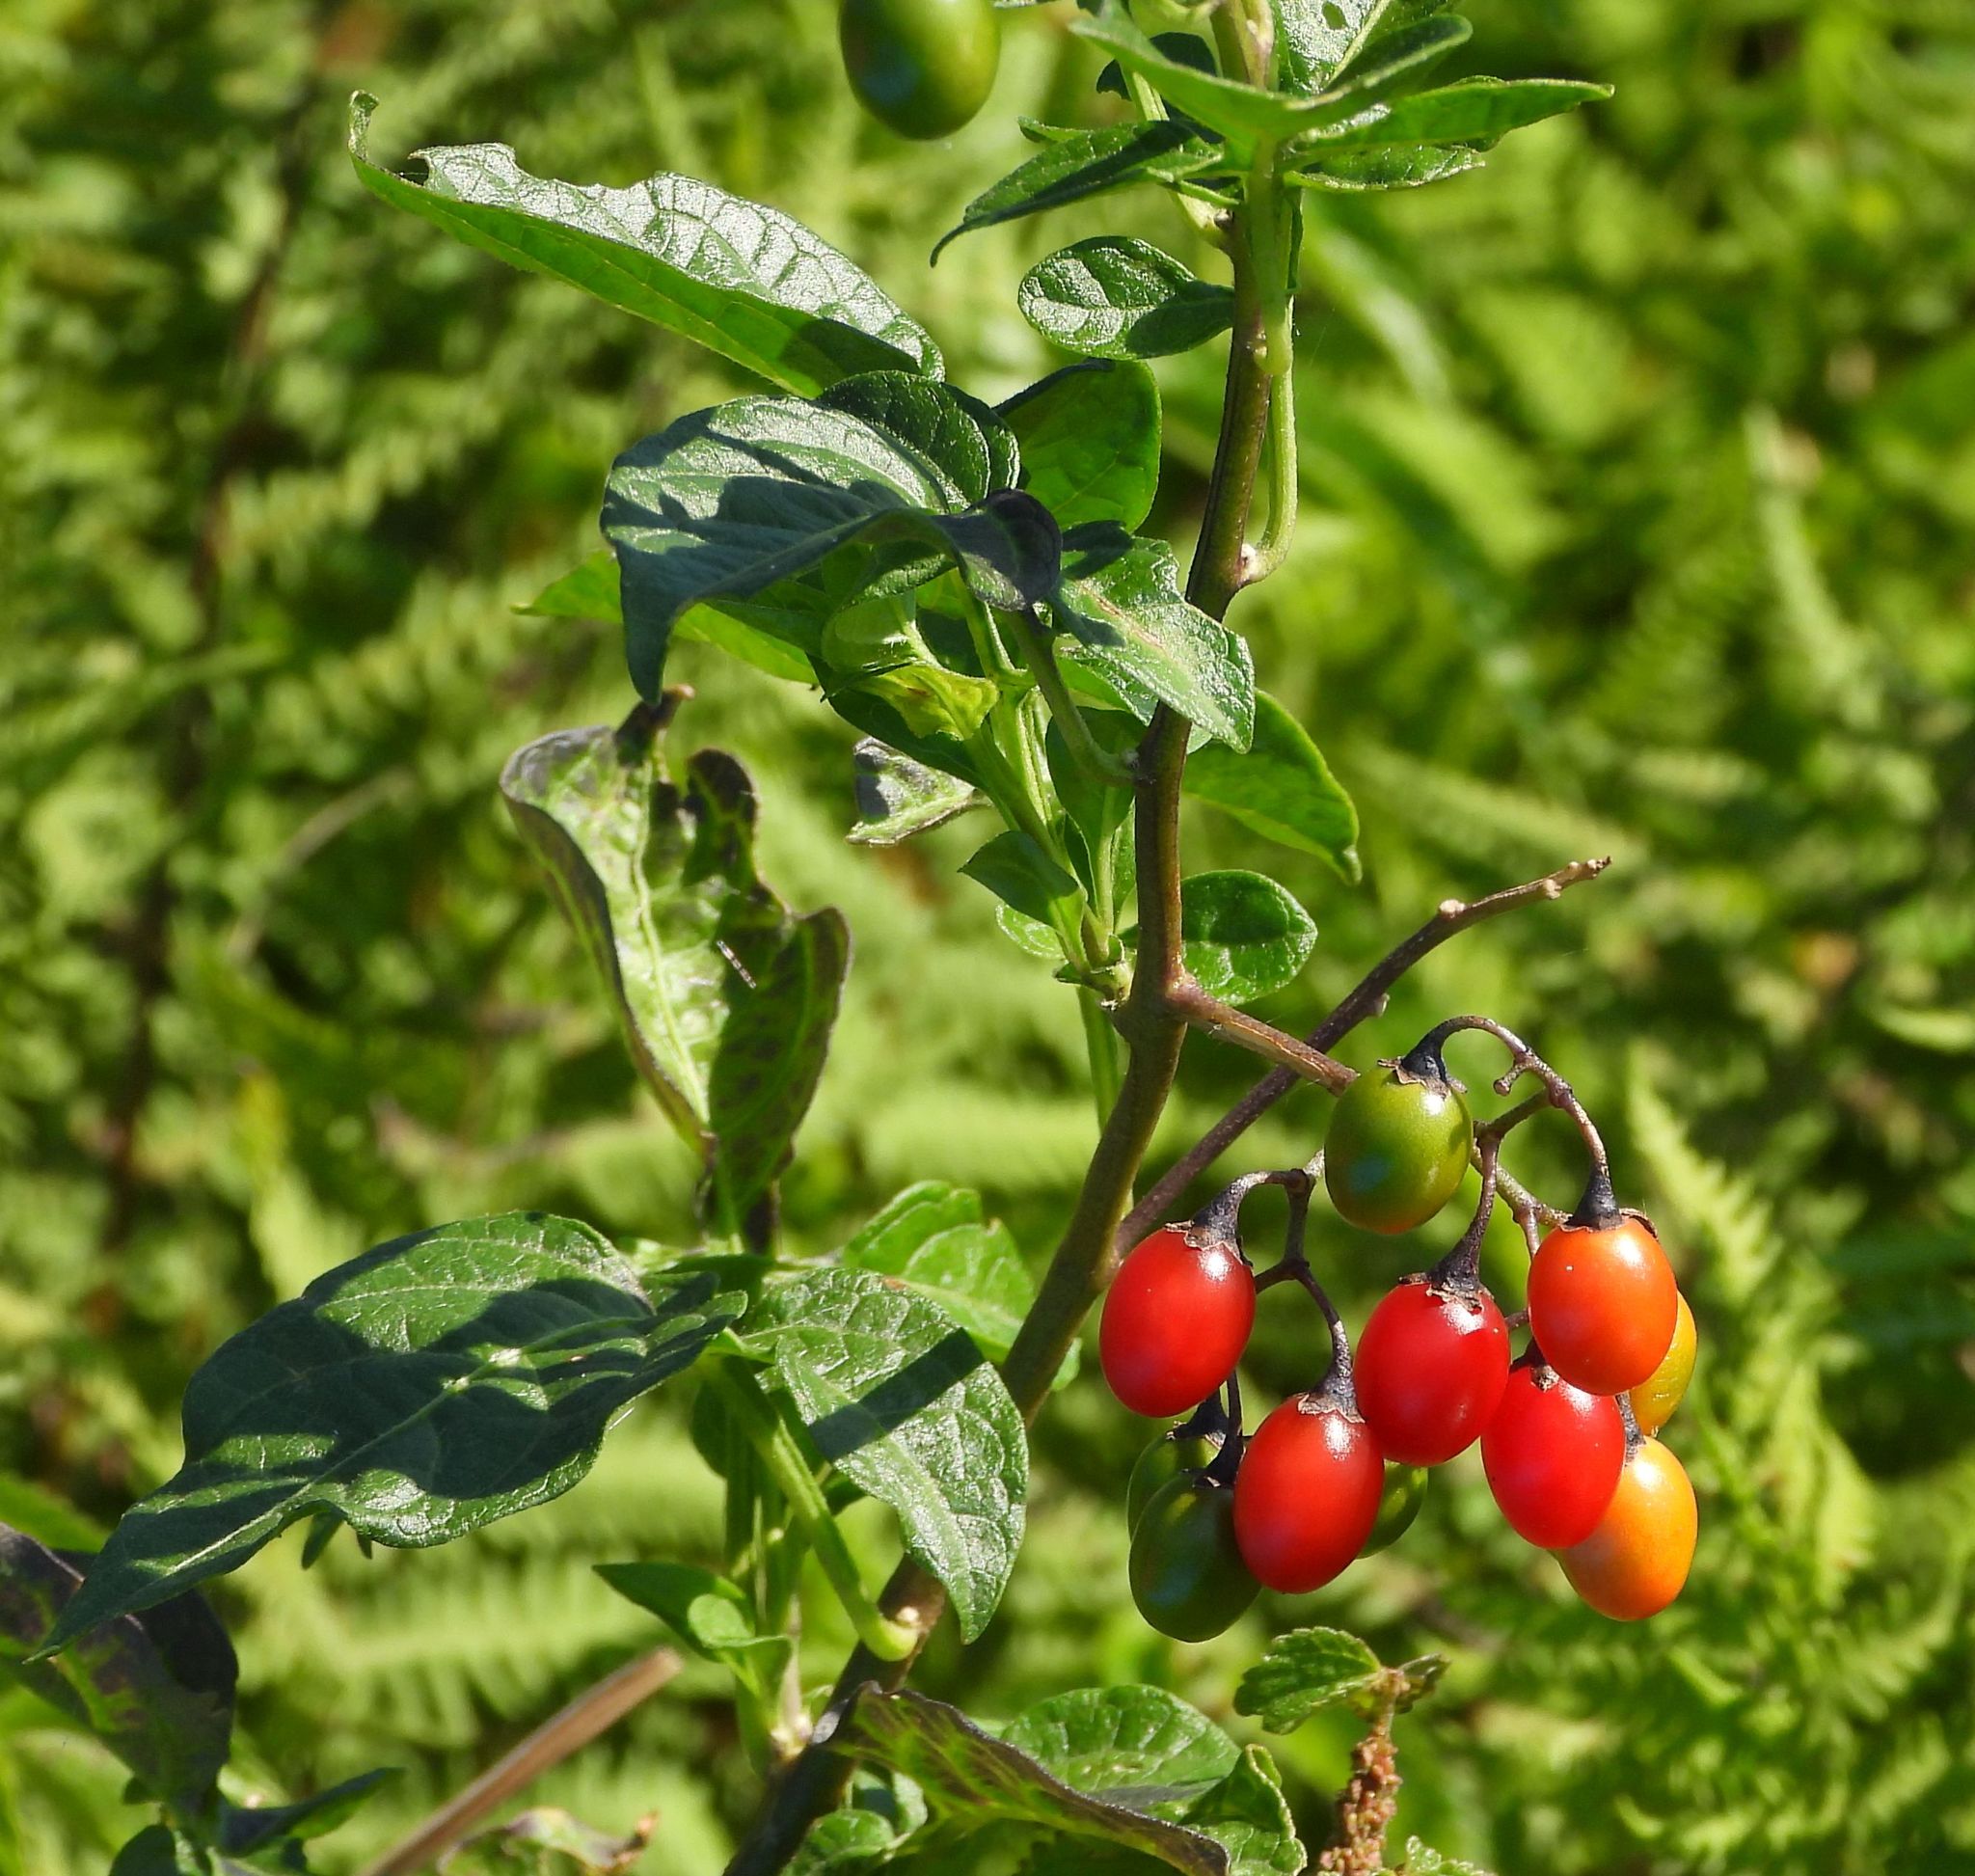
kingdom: Plantae
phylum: Tracheophyta
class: Magnoliopsida
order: Solanales
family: Solanaceae
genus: Solanum
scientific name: Solanum dulcamara
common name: Climbing nightshade
